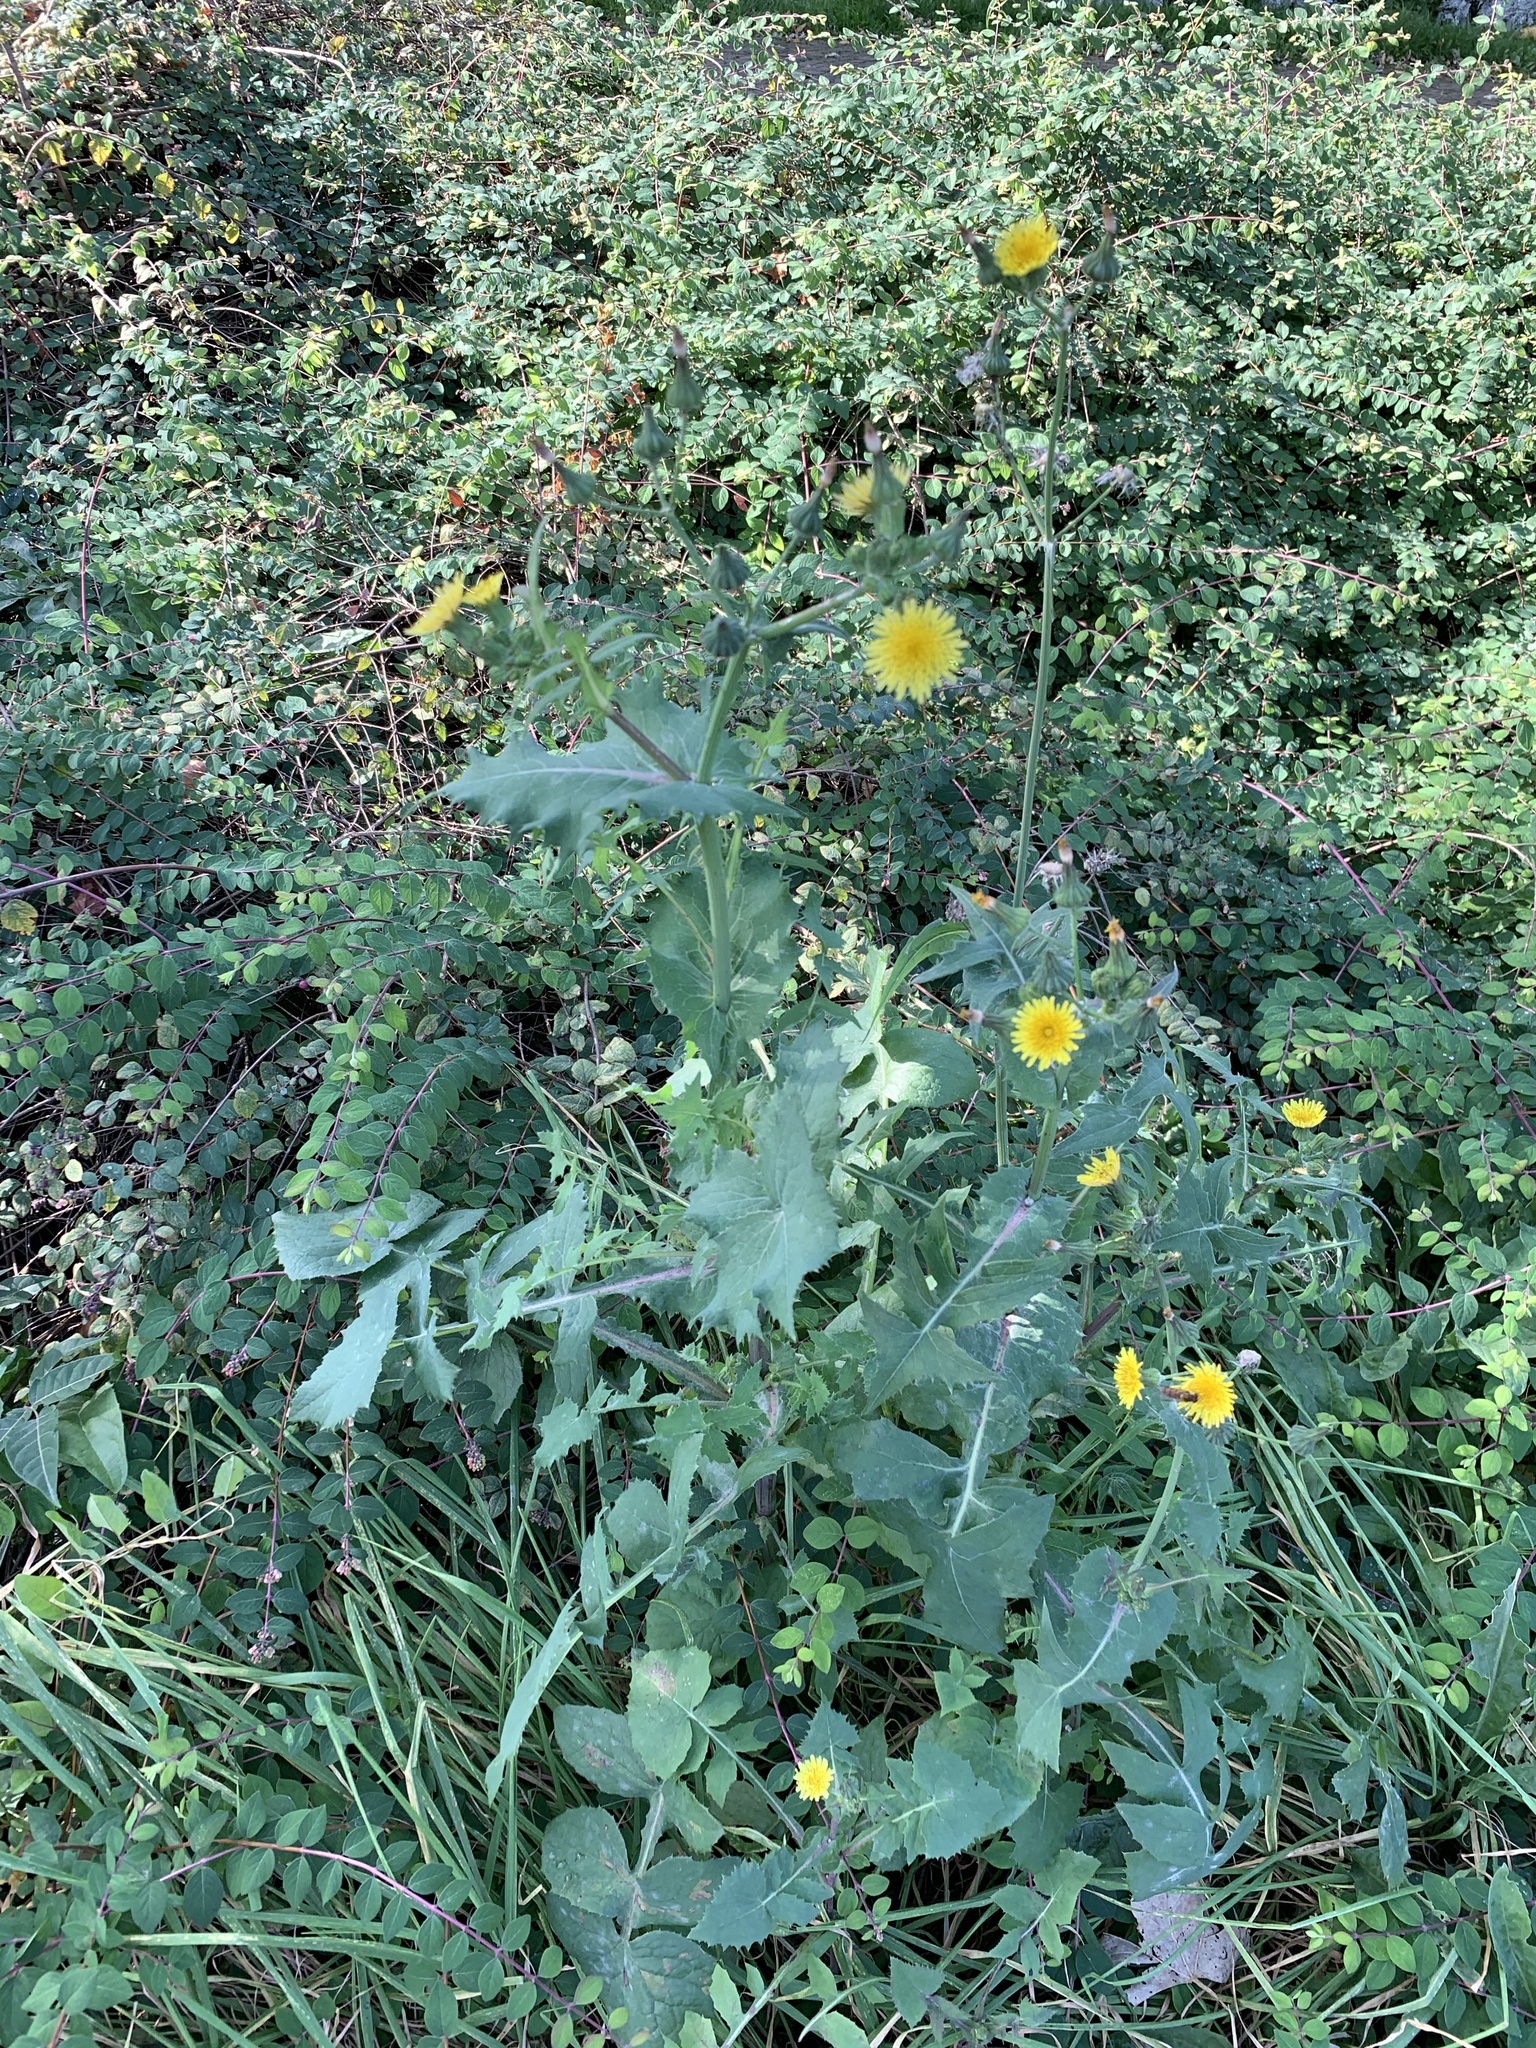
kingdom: Plantae
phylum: Tracheophyta
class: Magnoliopsida
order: Asterales
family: Asteraceae
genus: Sonchus
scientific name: Sonchus oleraceus
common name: Common sowthistle
